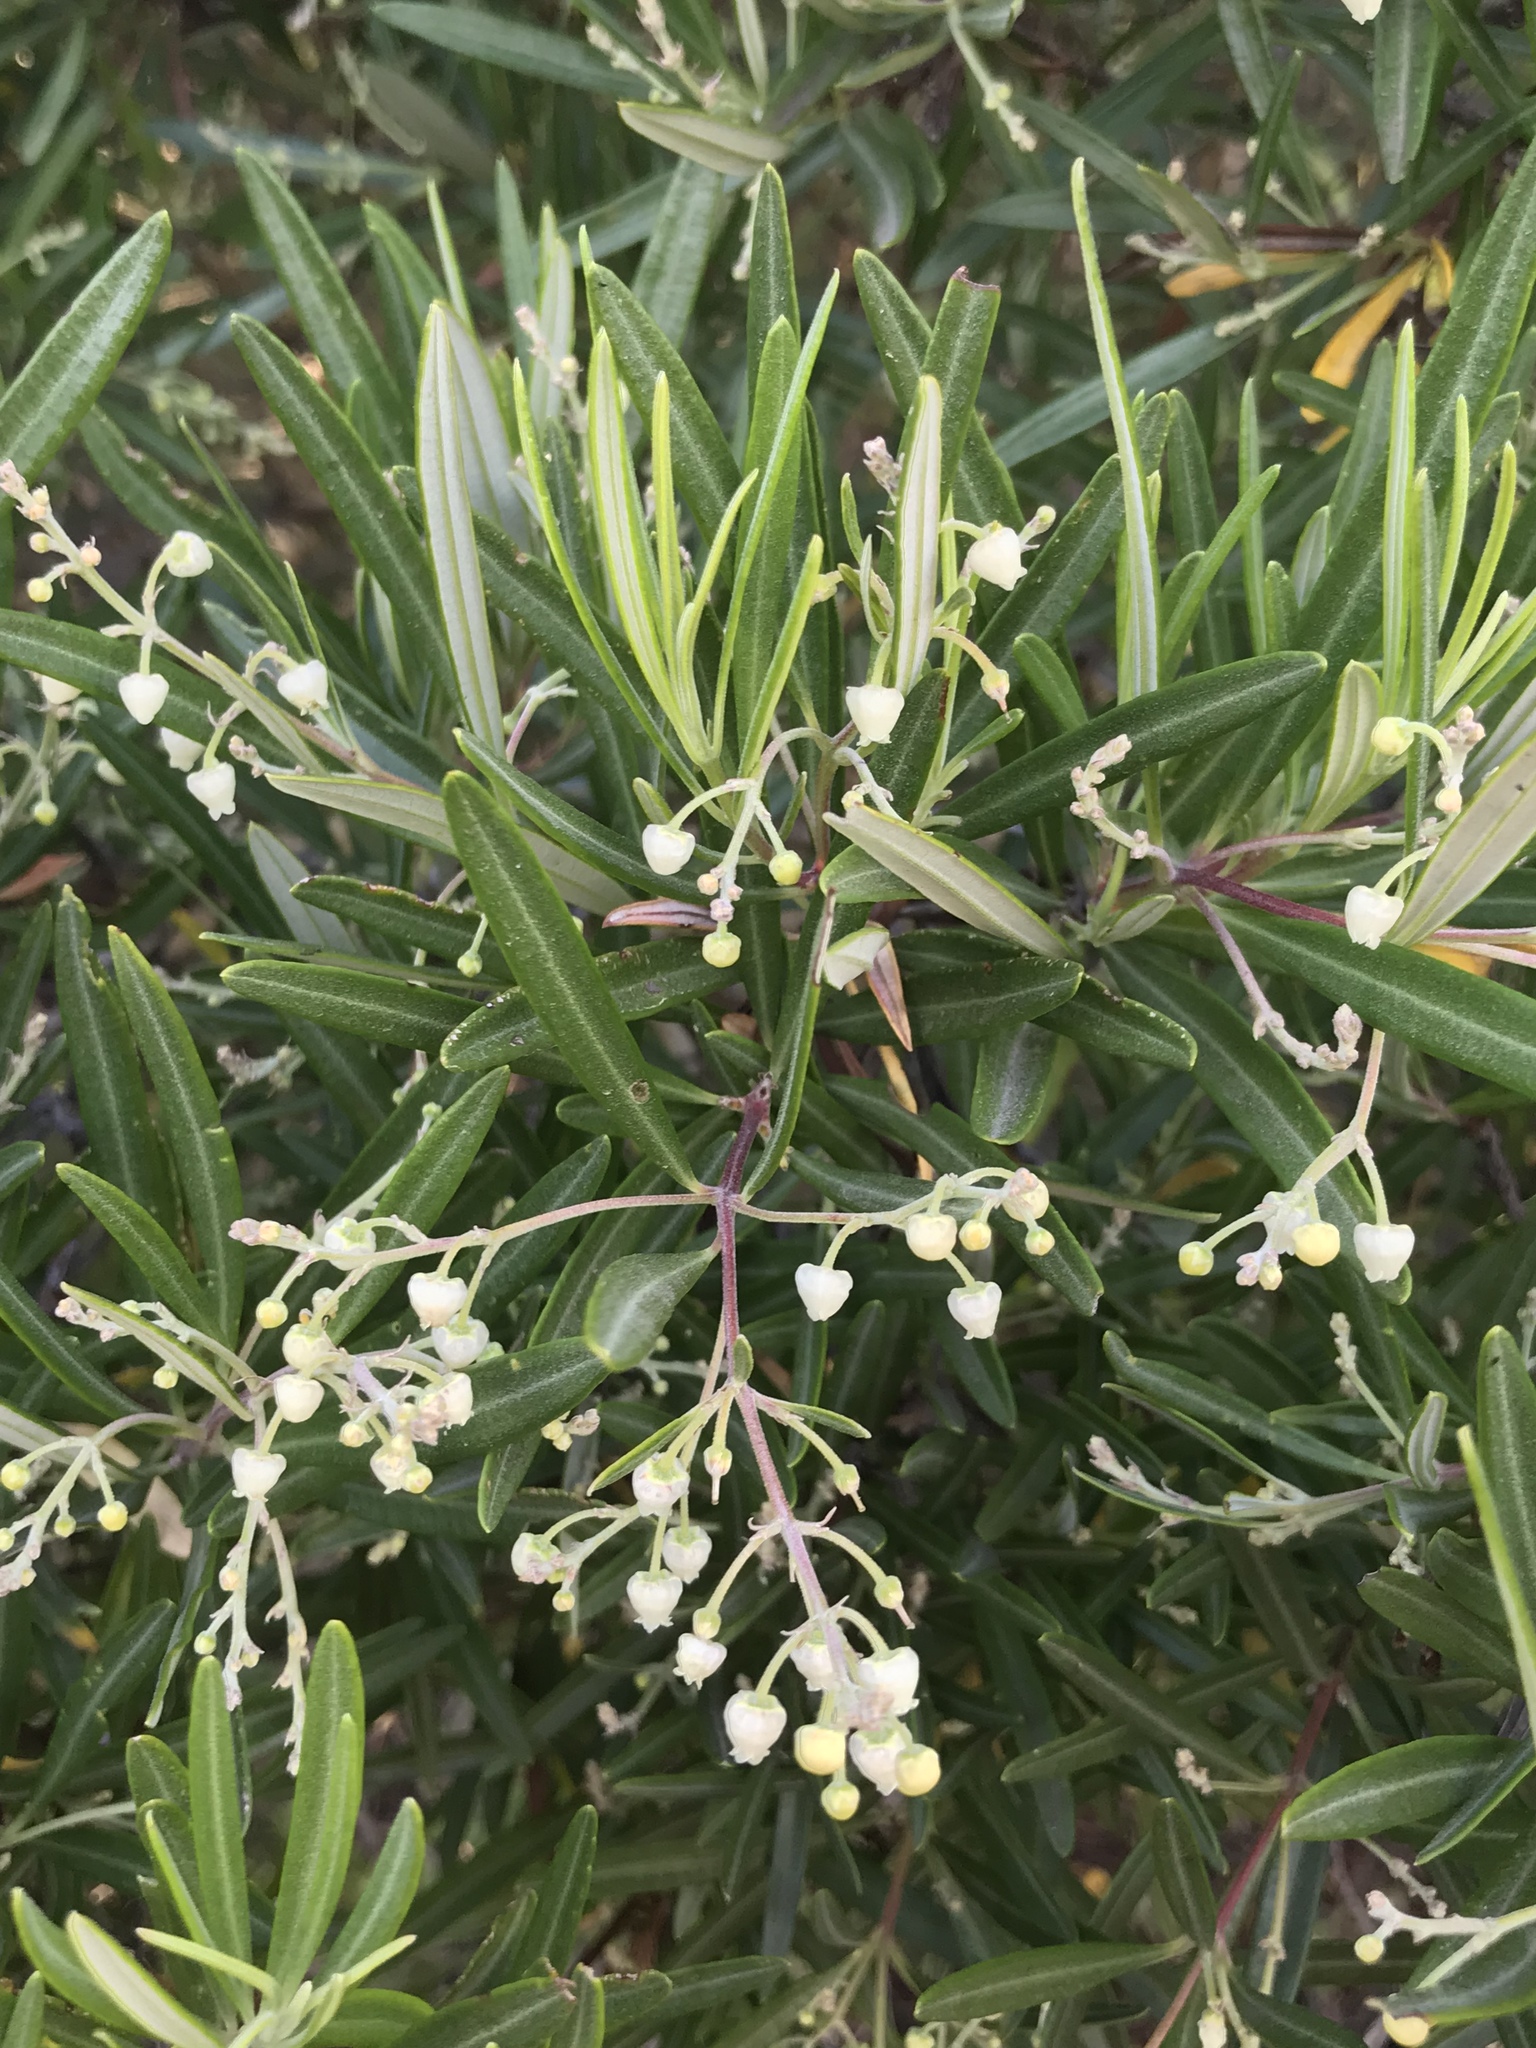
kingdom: Plantae
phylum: Tracheophyta
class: Magnoliopsida
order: Ericales
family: Ericaceae
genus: Ornithostaphylos
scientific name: Ornithostaphylos oppositifolia
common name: Baja california birdbush
